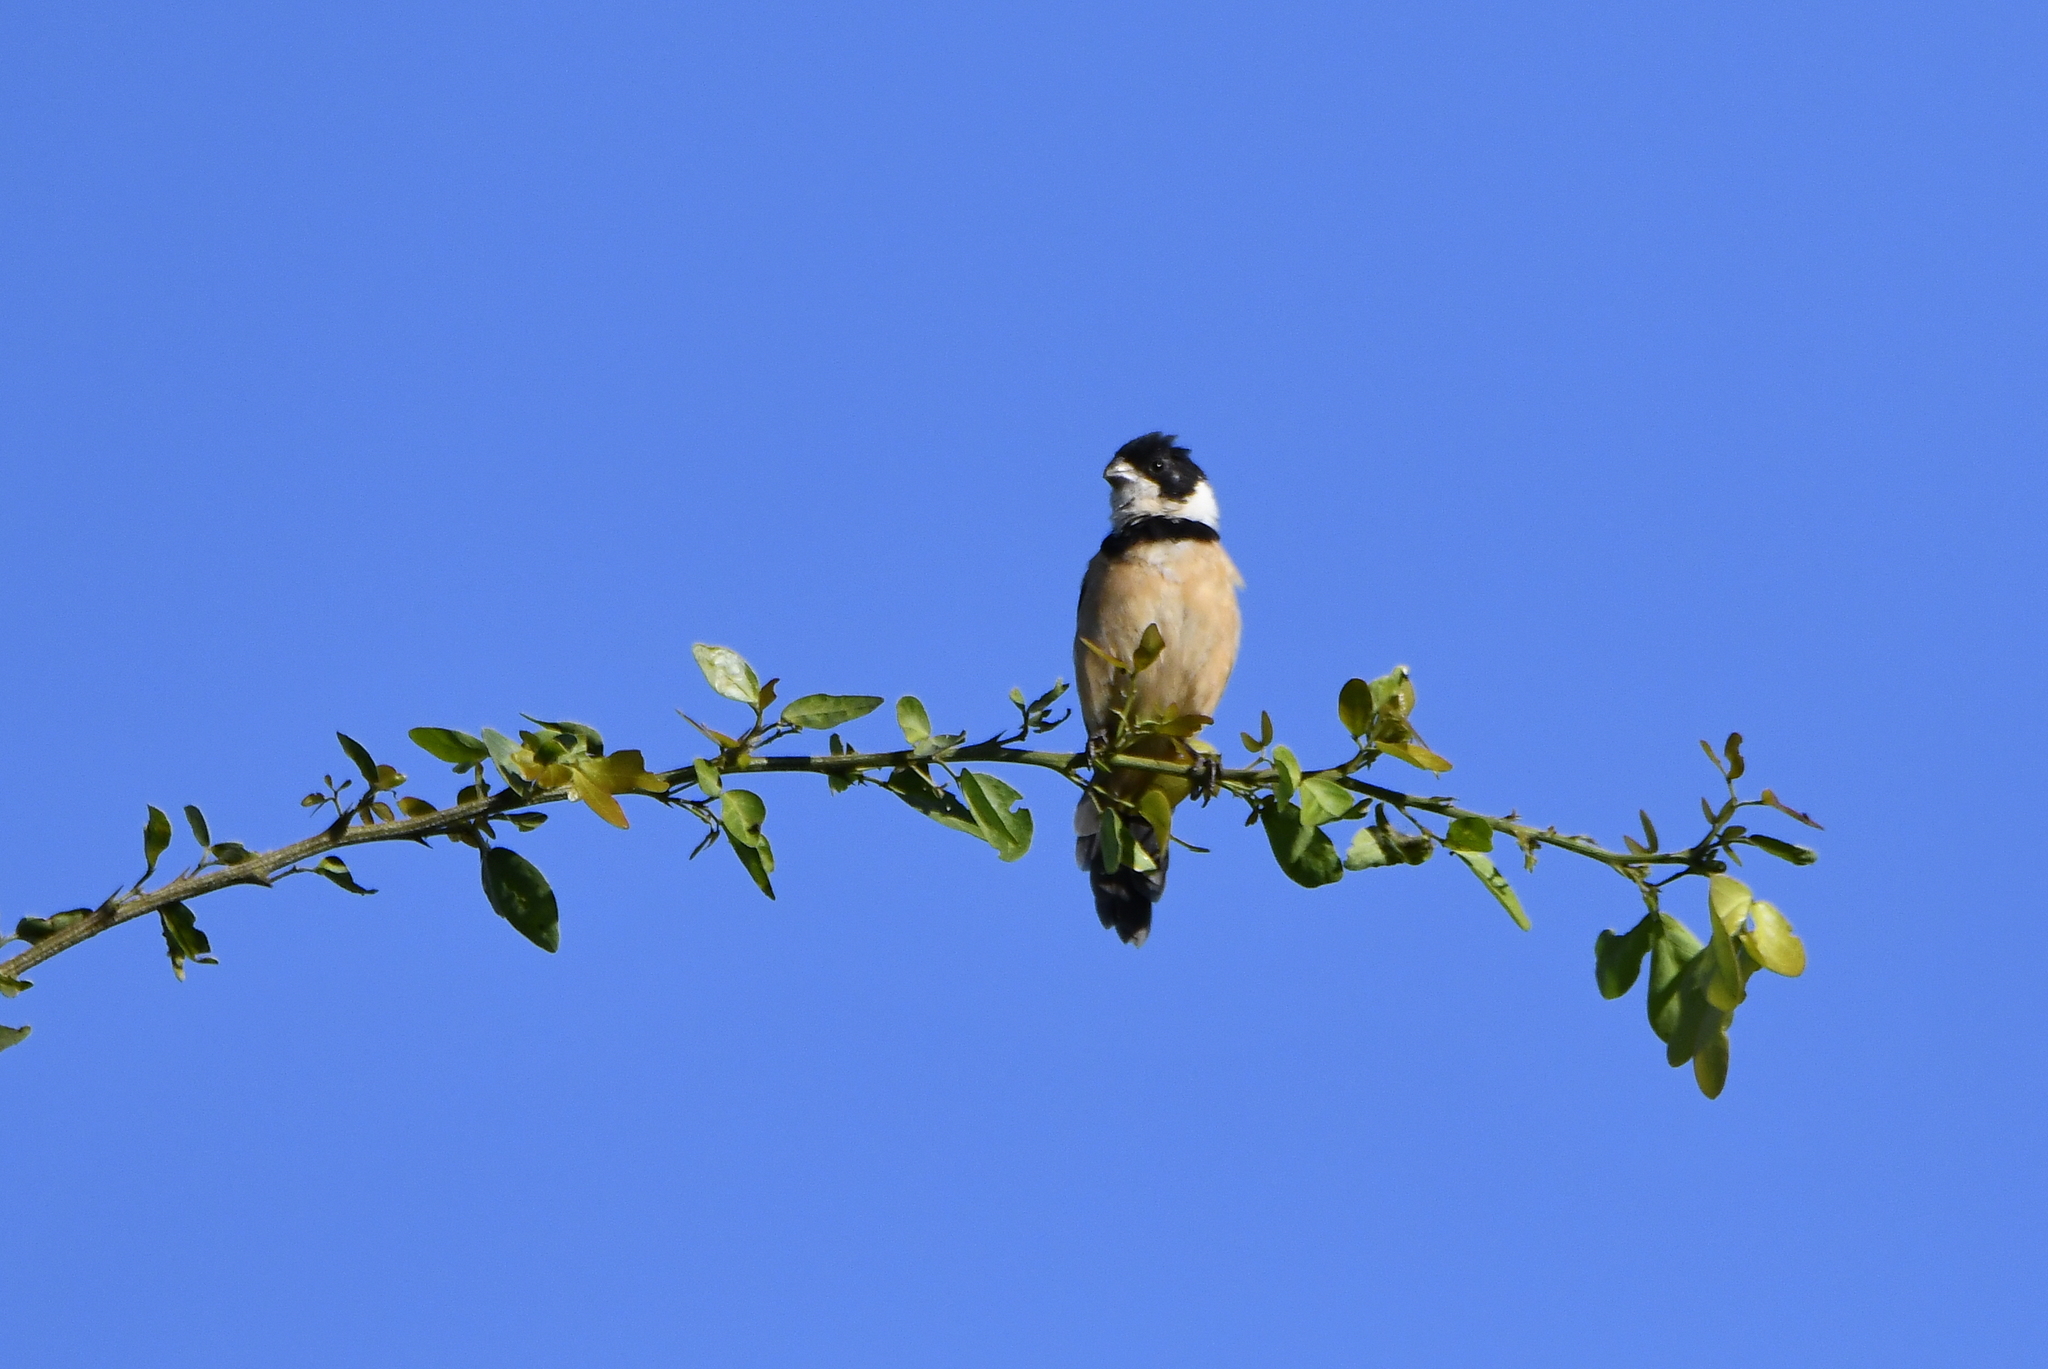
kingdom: Animalia
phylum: Chordata
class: Aves
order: Passeriformes
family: Thraupidae
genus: Sporophila
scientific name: Sporophila torqueola
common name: White-collared seedeater
